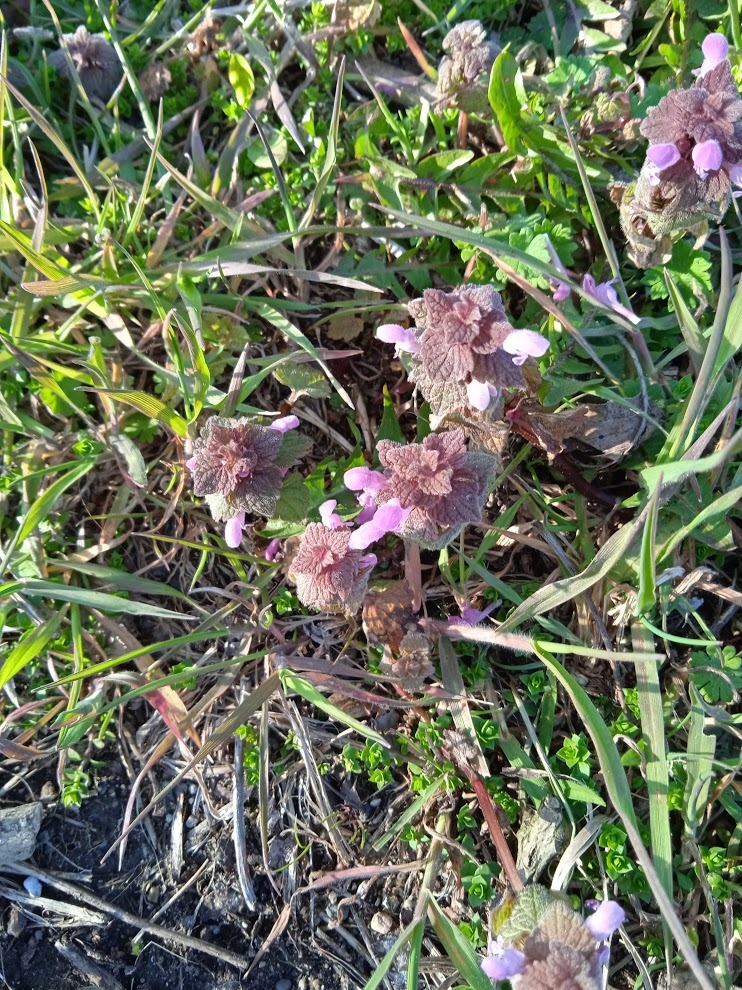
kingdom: Plantae
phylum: Tracheophyta
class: Magnoliopsida
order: Lamiales
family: Lamiaceae
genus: Lamium
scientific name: Lamium purpureum
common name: Red dead-nettle
